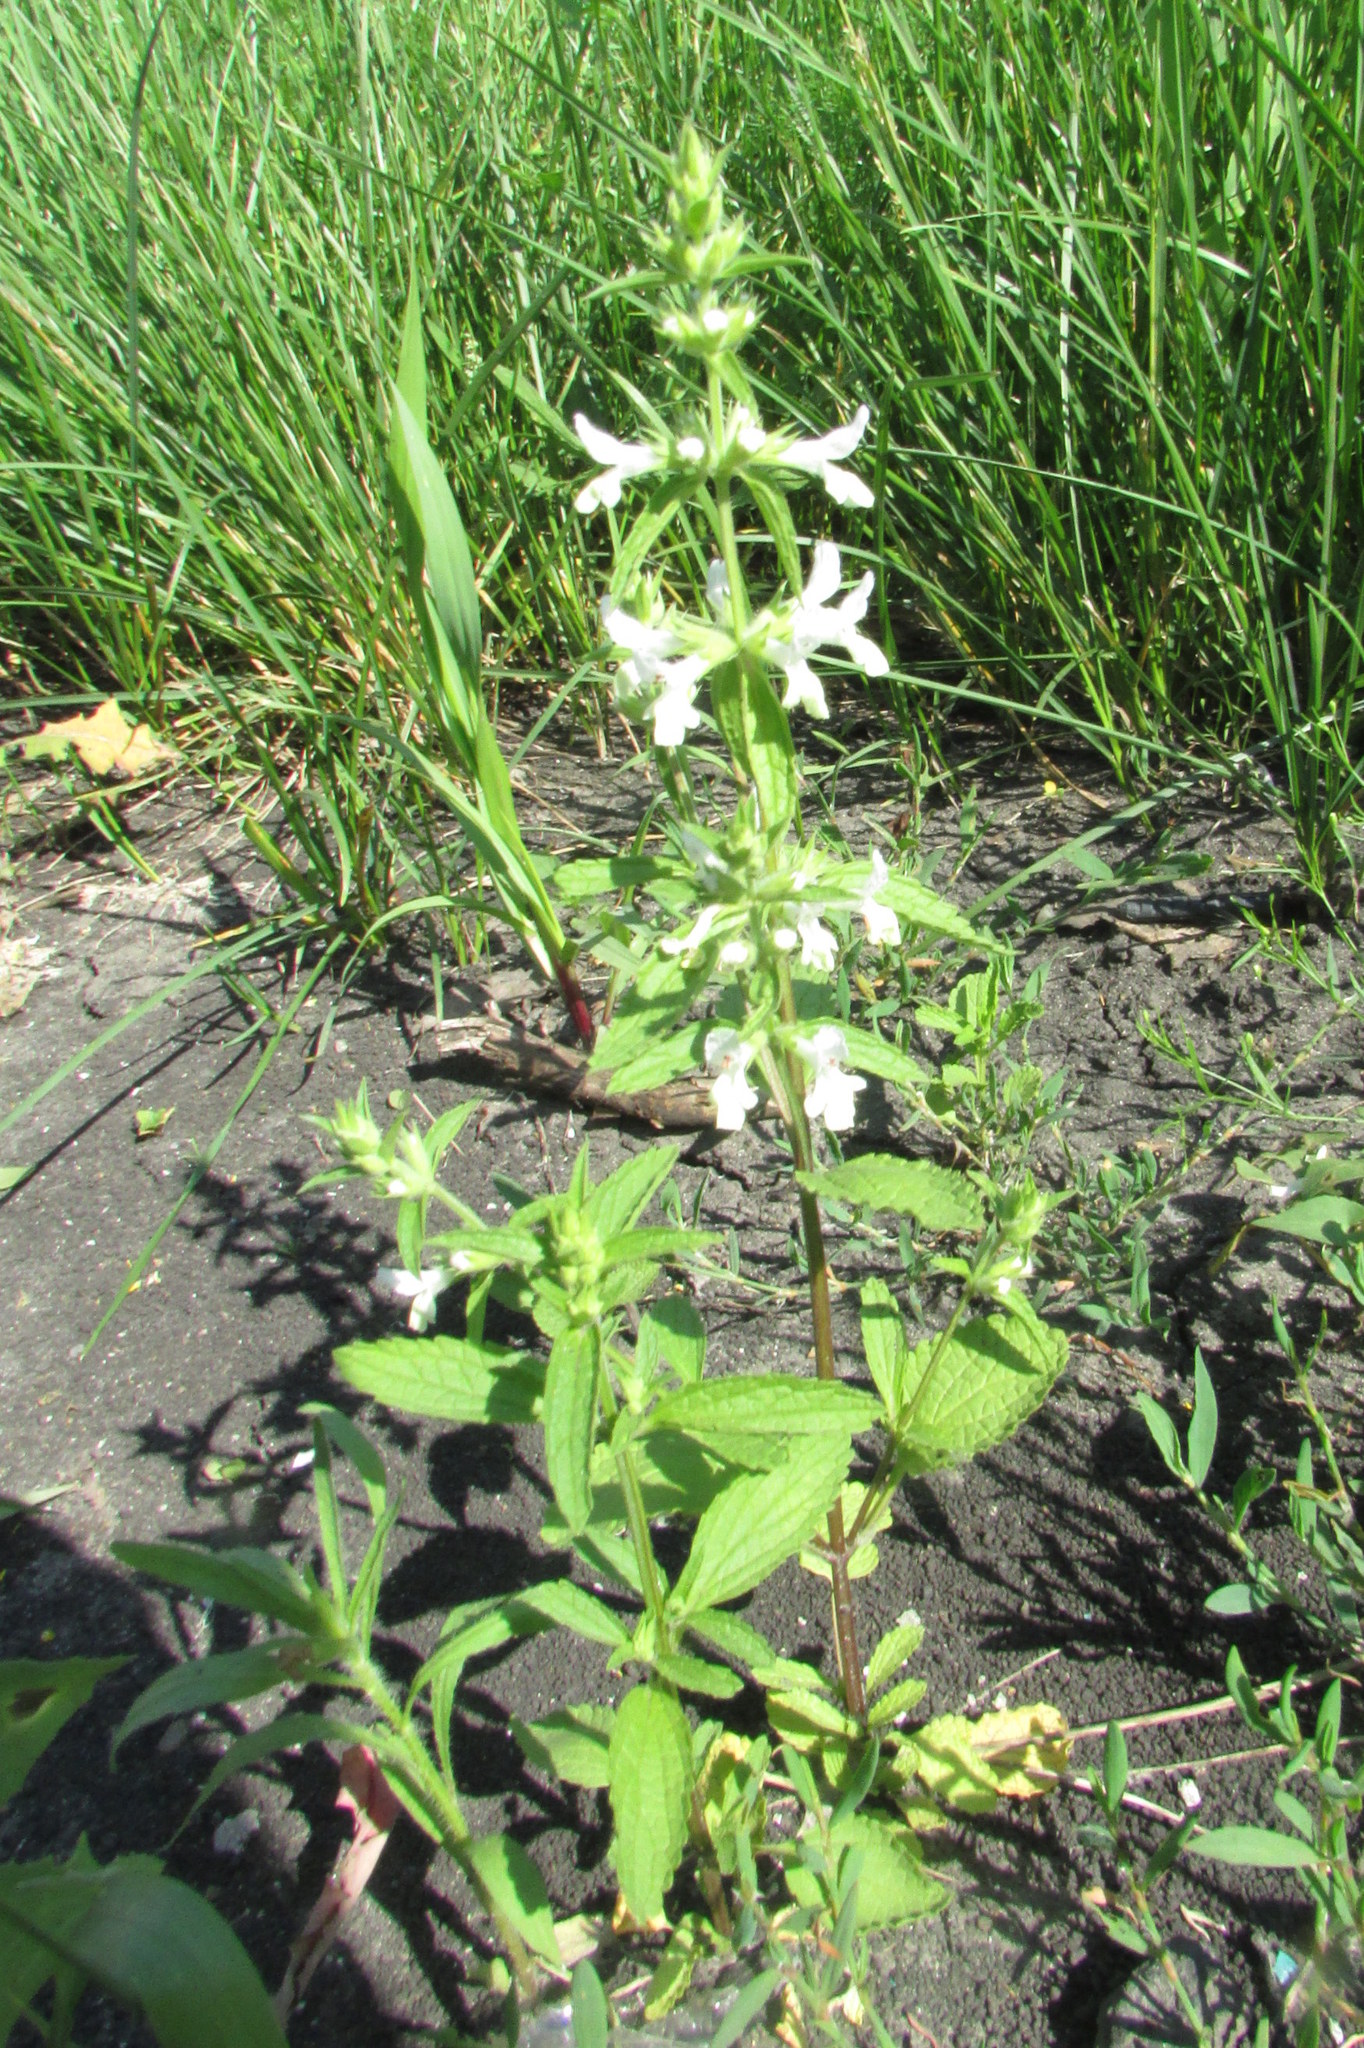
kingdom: Plantae
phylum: Tracheophyta
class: Magnoliopsida
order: Lamiales
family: Lamiaceae
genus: Stachys
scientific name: Stachys annua
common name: Annual yellow-woundwort
